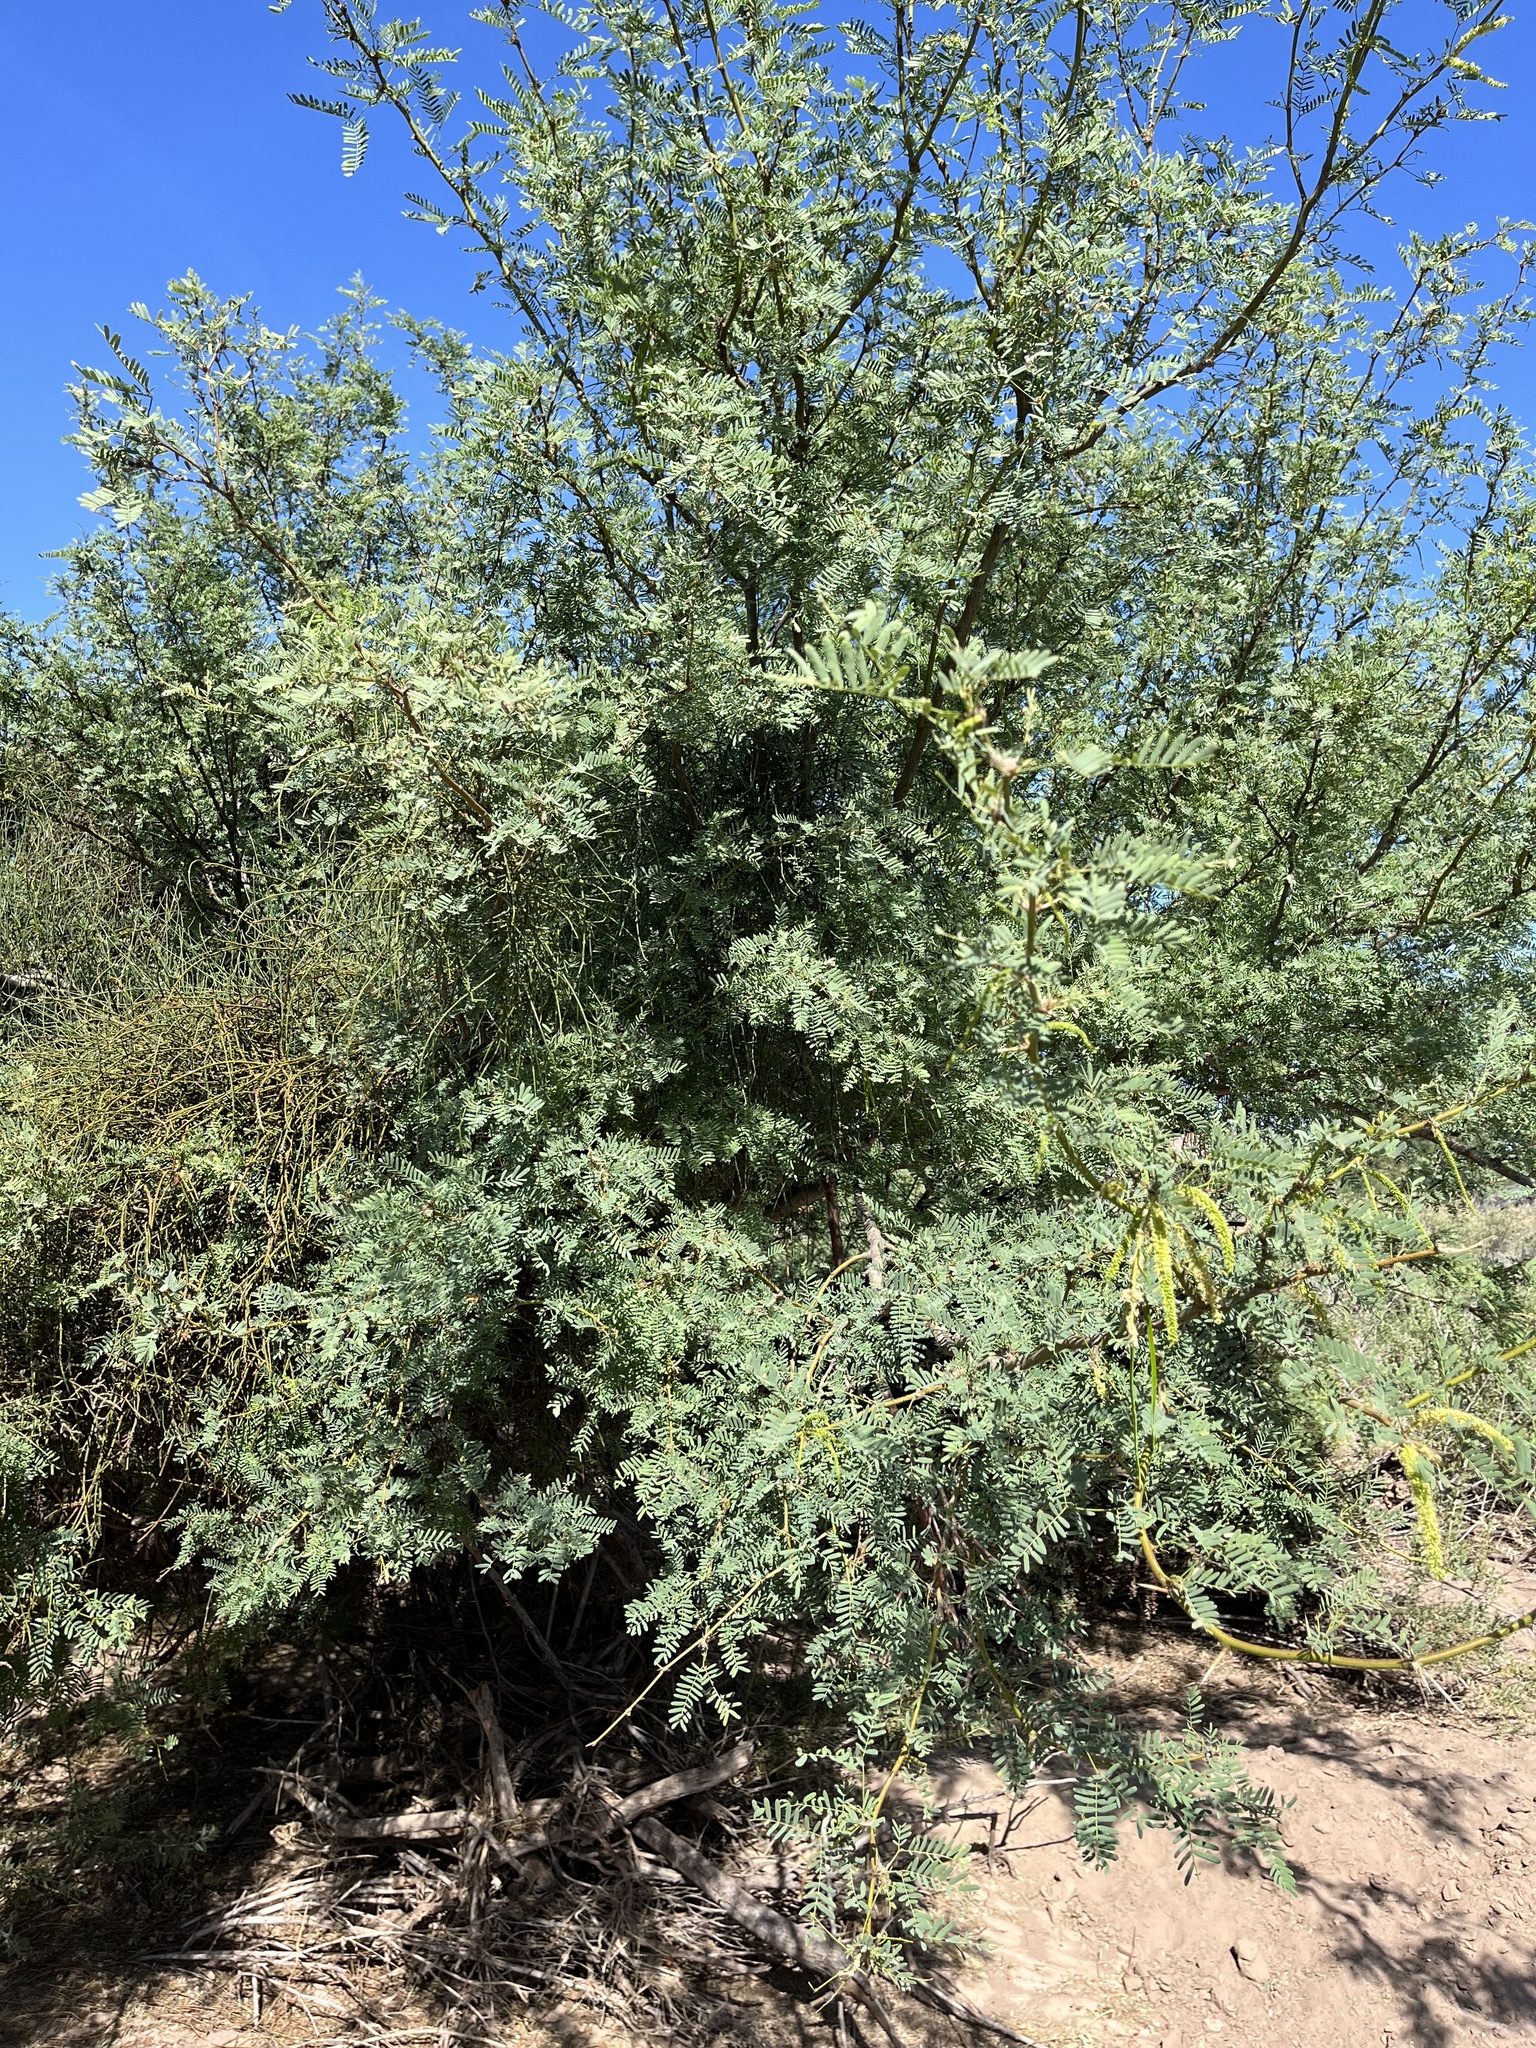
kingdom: Plantae
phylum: Tracheophyta
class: Magnoliopsida
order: Fabales
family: Fabaceae
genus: Prosopis
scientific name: Prosopis pubescens
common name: Screw-bean
